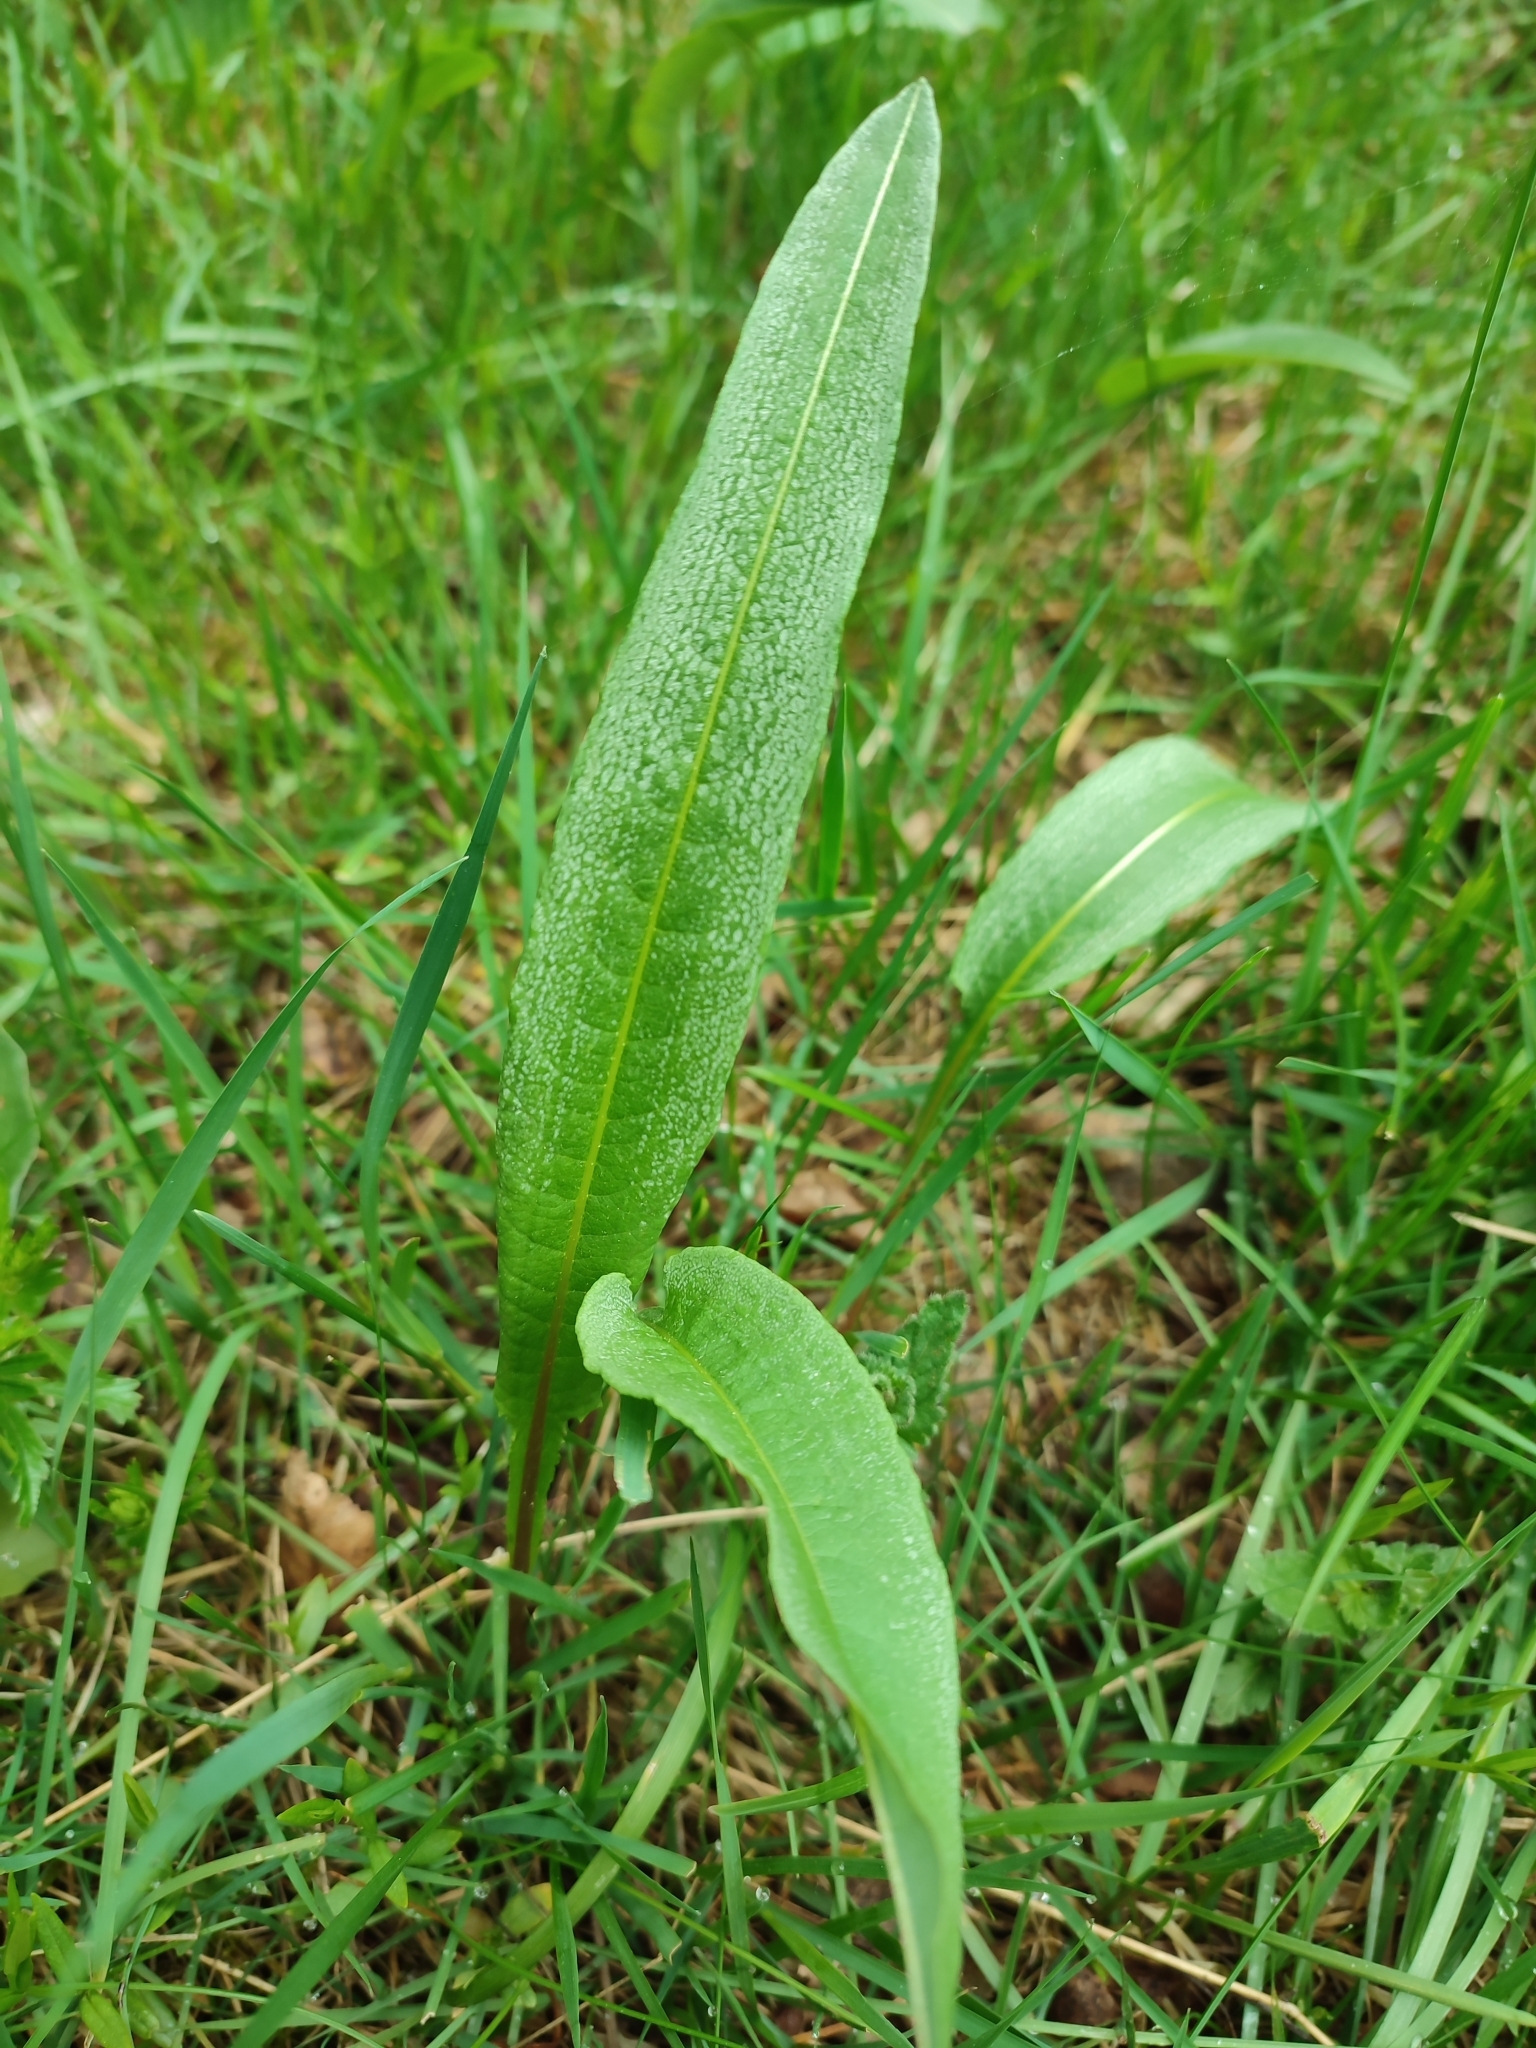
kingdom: Plantae
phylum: Tracheophyta
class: Magnoliopsida
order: Caryophyllales
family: Polygonaceae
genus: Bistorta
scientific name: Bistorta officinalis
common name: Common bistort
